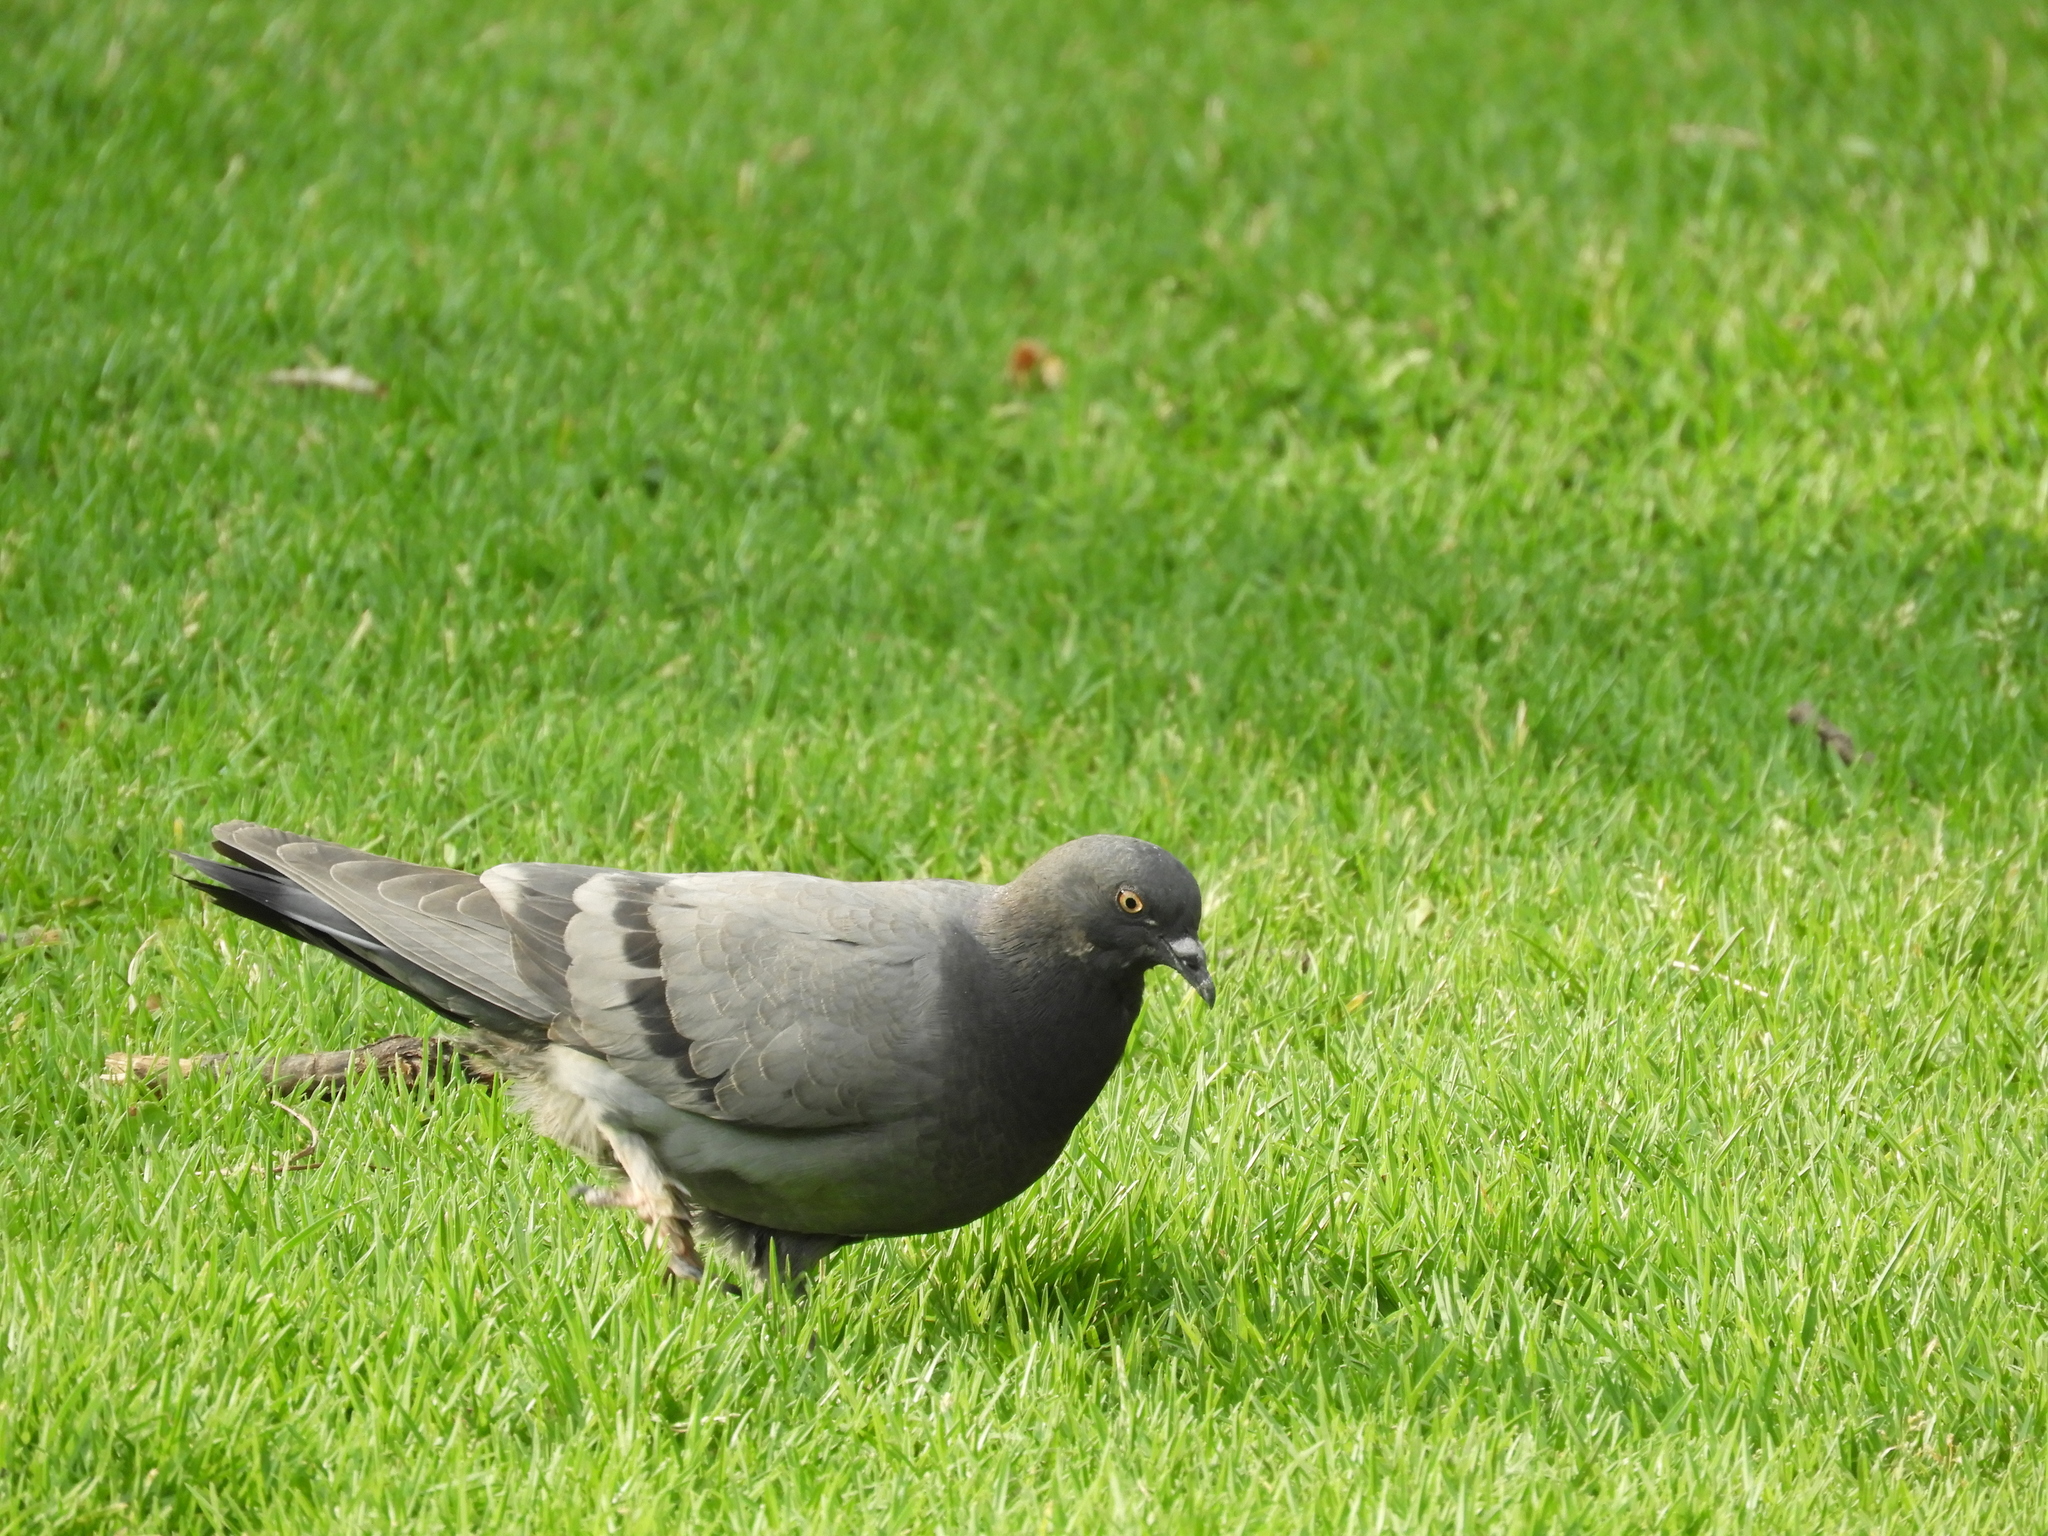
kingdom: Animalia
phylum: Chordata
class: Aves
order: Columbiformes
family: Columbidae
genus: Columba
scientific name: Columba livia
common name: Rock pigeon
